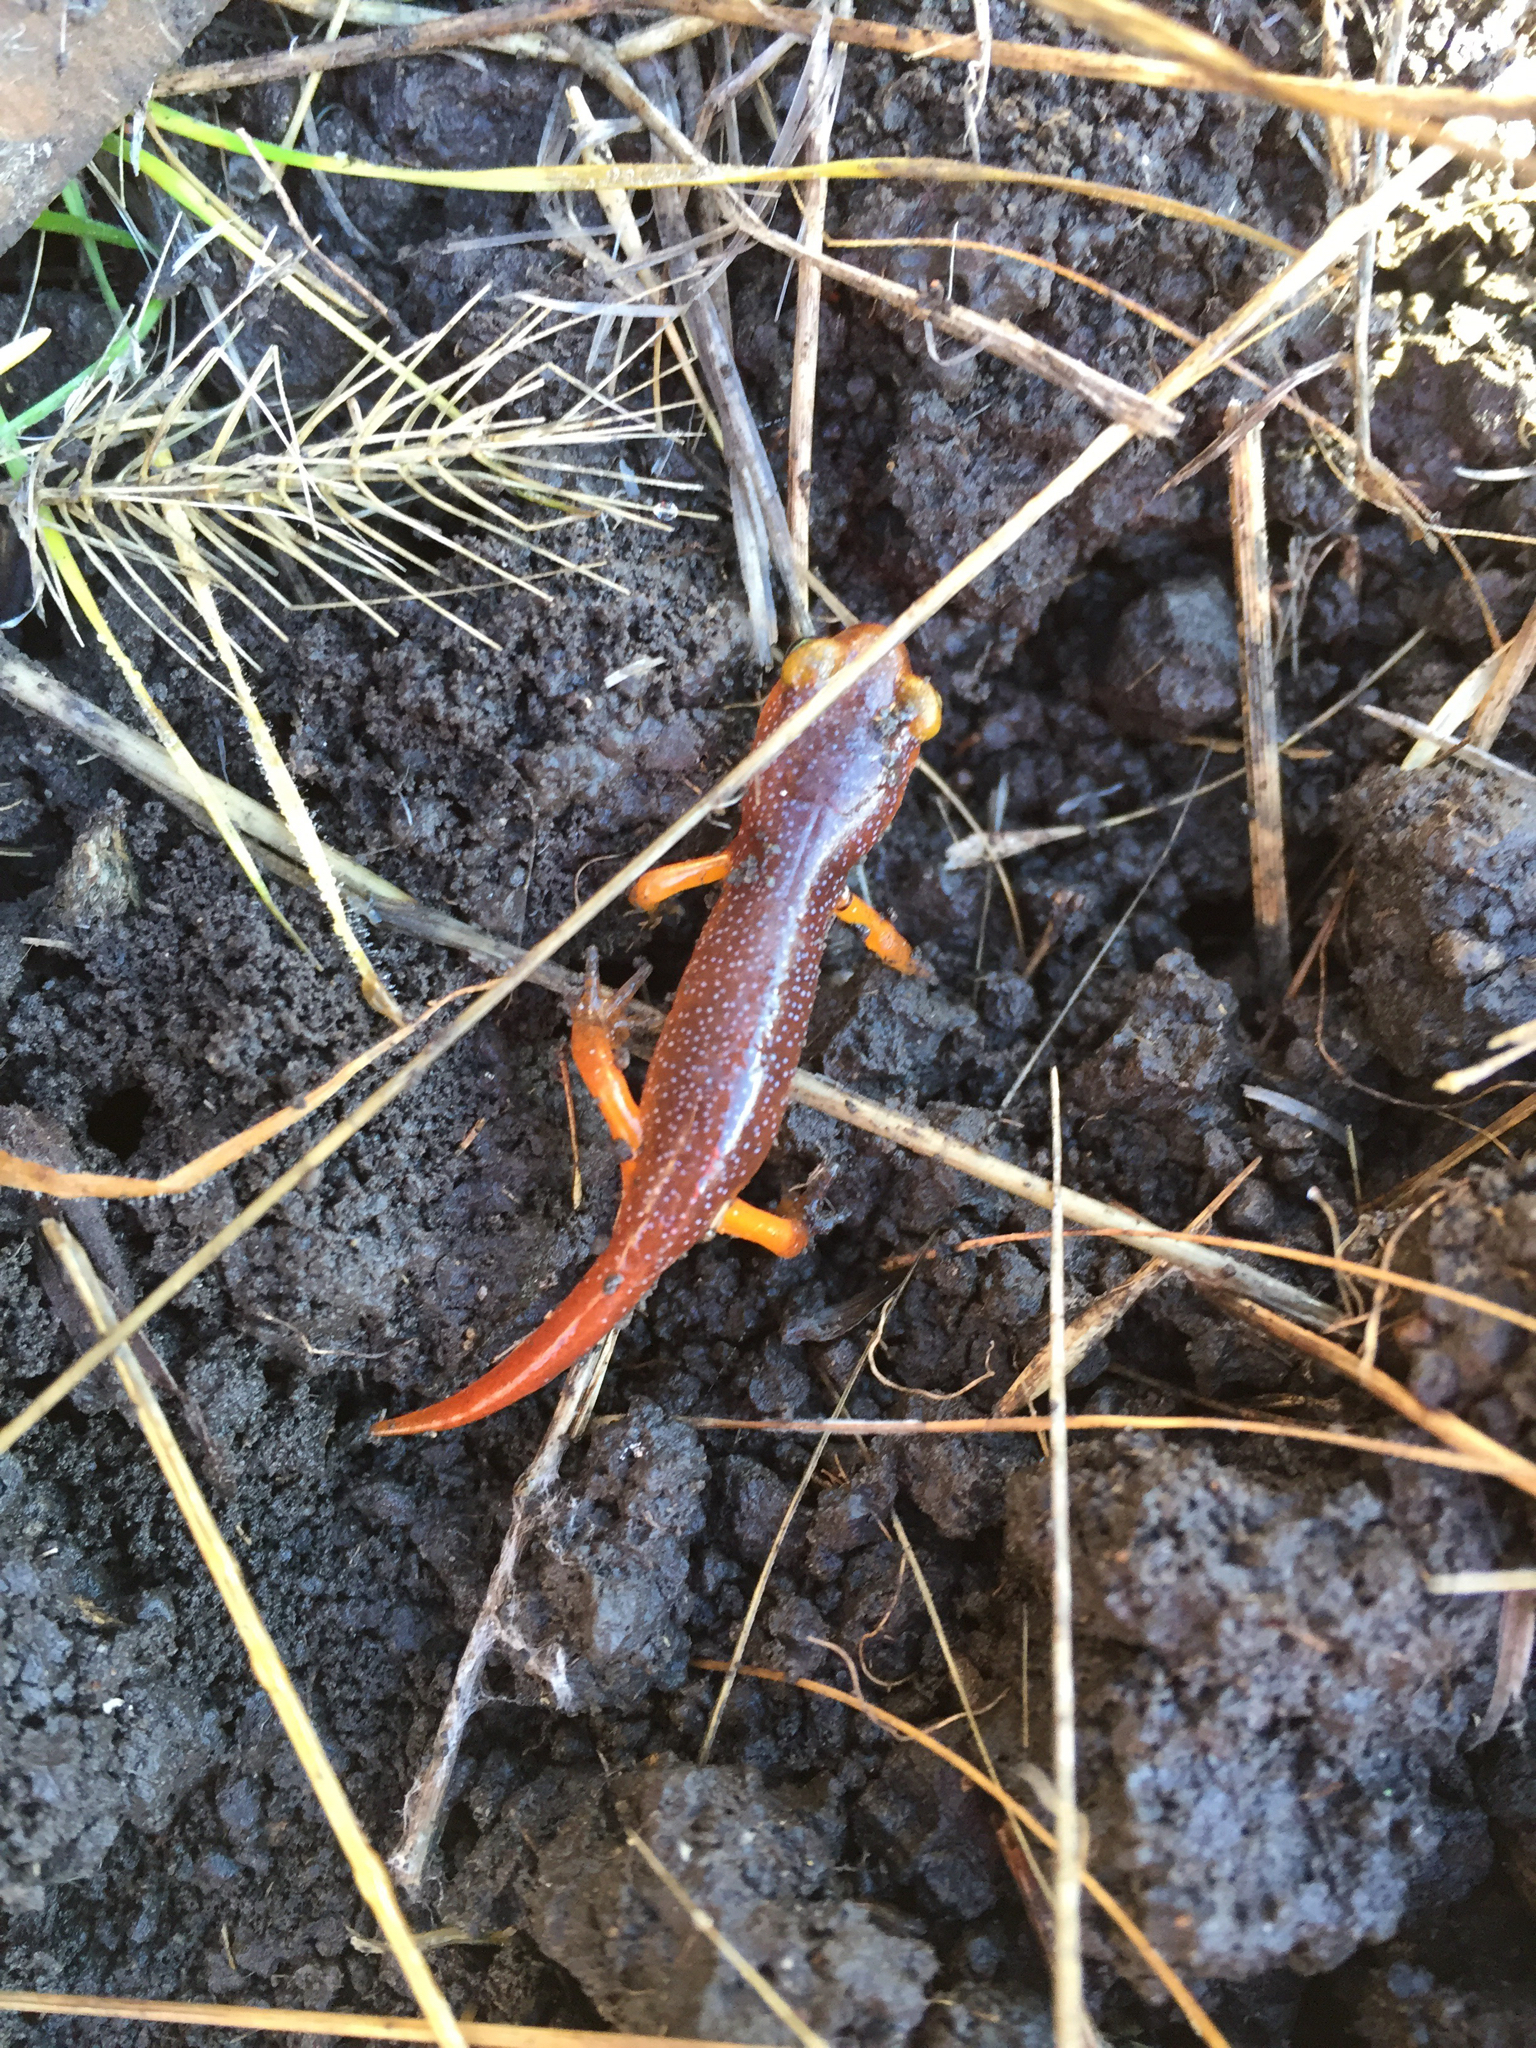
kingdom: Animalia
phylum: Chordata
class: Amphibia
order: Caudata
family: Plethodontidae
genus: Ensatina
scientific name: Ensatina eschscholtzii
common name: Ensatina
